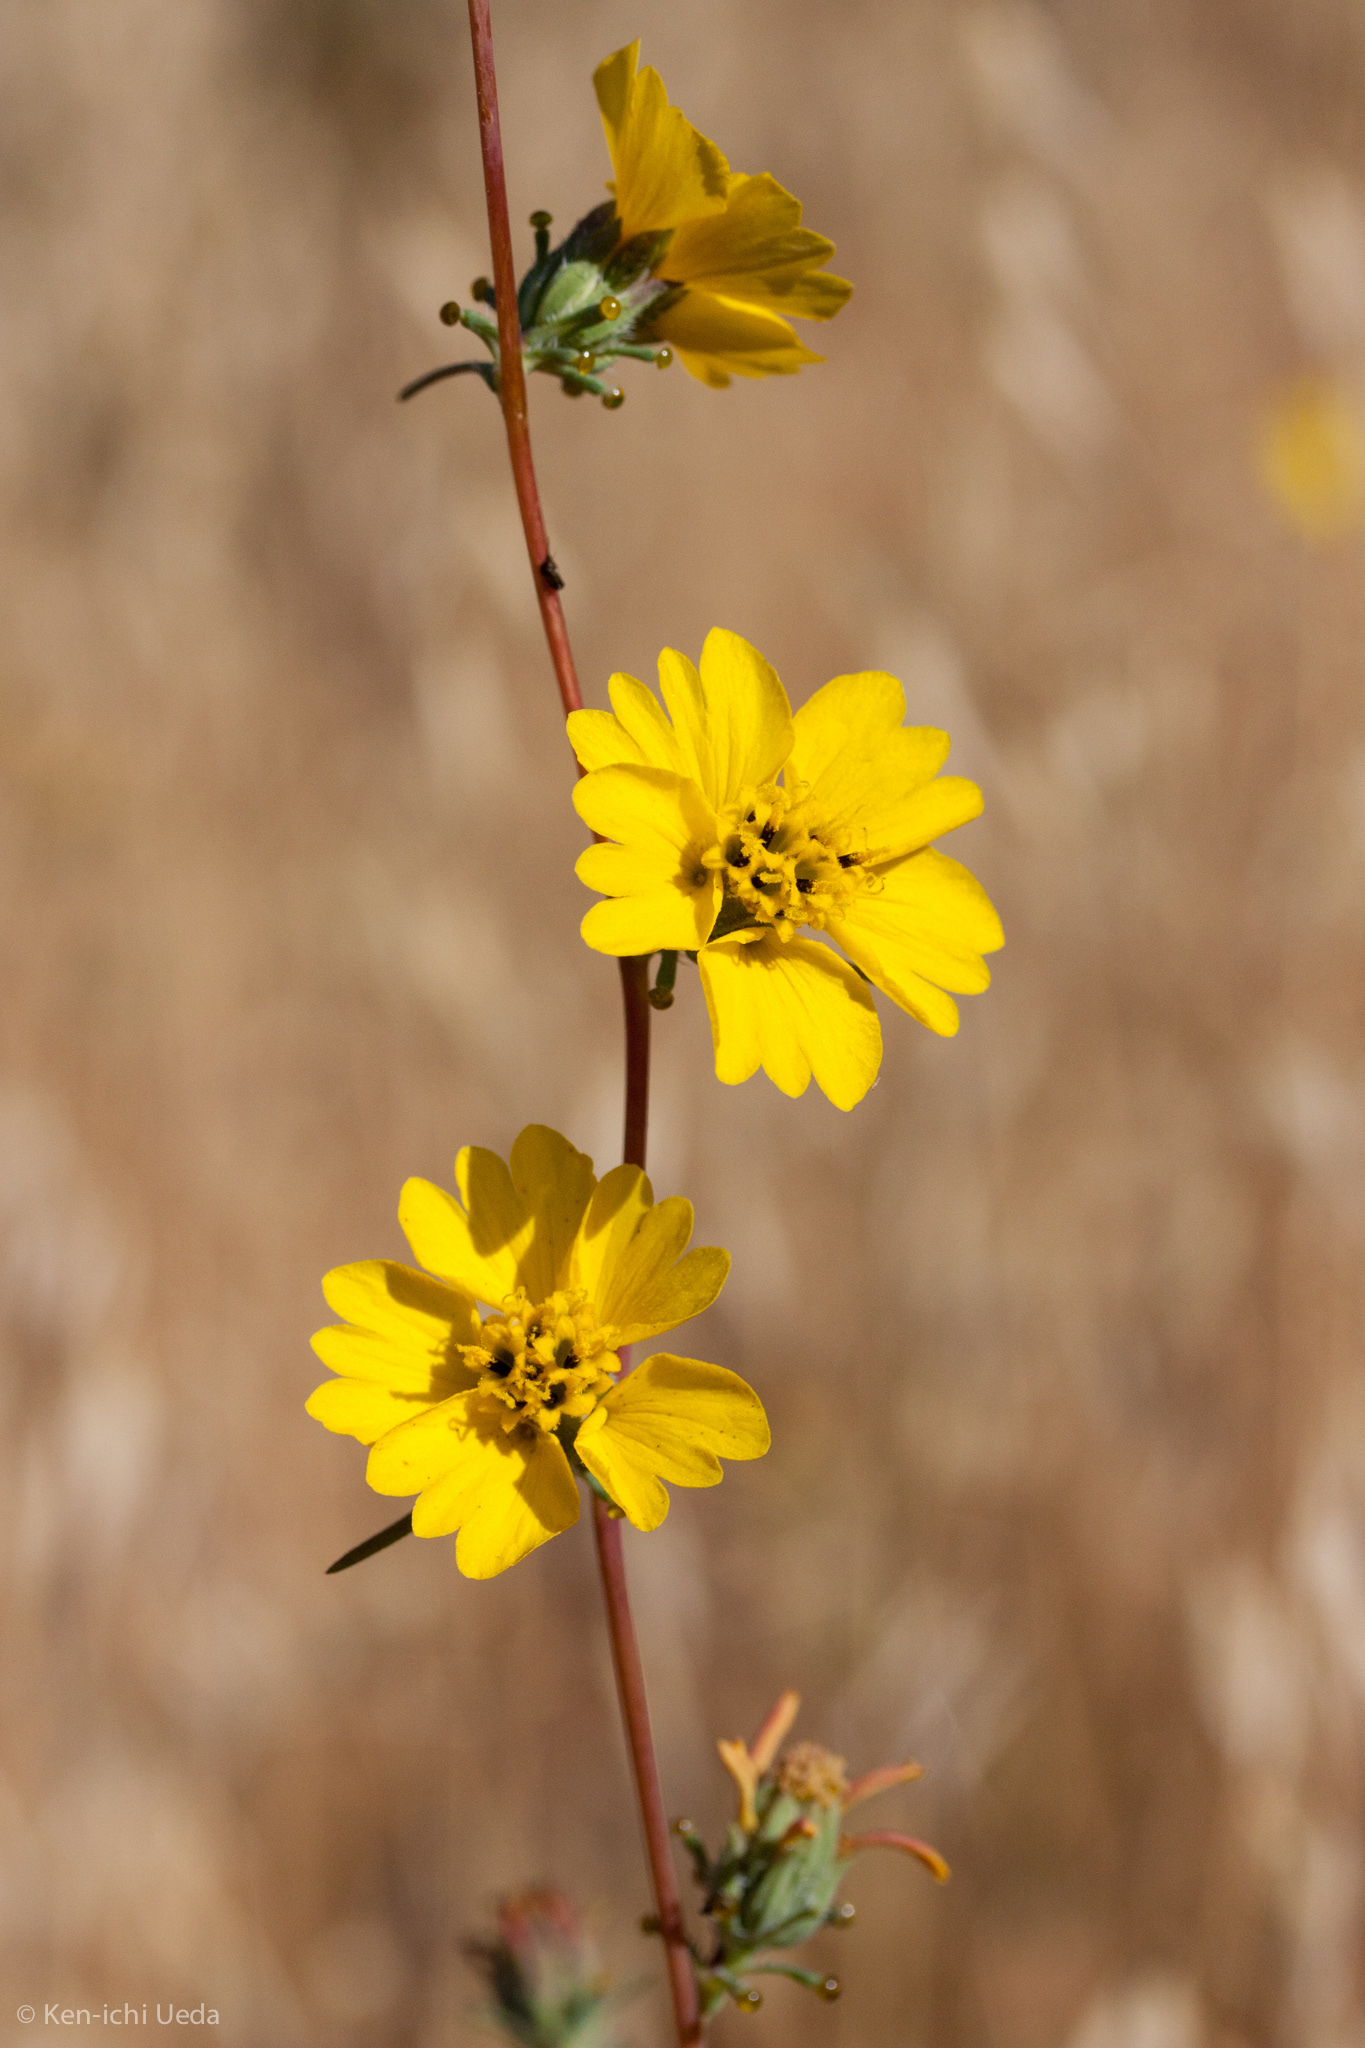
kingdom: Plantae
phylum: Tracheophyta
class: Magnoliopsida
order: Asterales
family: Asteraceae
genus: Calycadenia
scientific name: Calycadenia truncata
